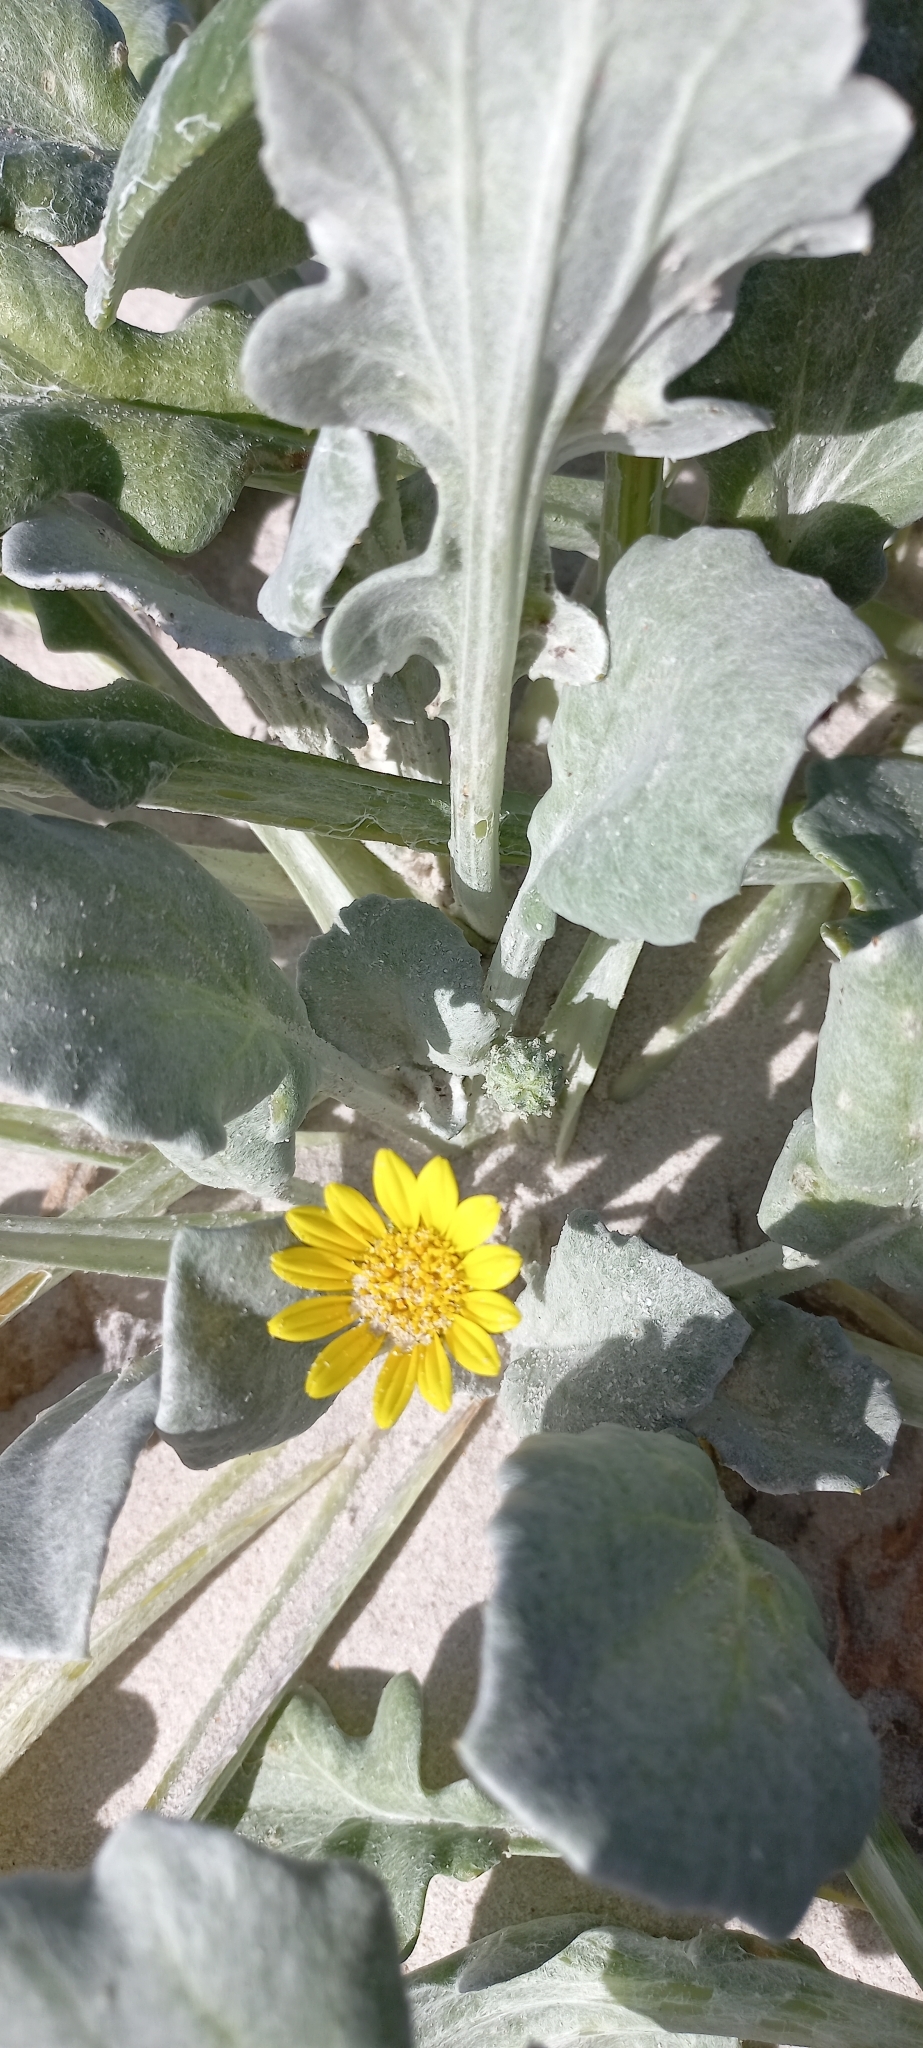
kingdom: Plantae
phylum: Tracheophyta
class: Magnoliopsida
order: Asterales
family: Asteraceae
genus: Arctotheca
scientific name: Arctotheca populifolia
